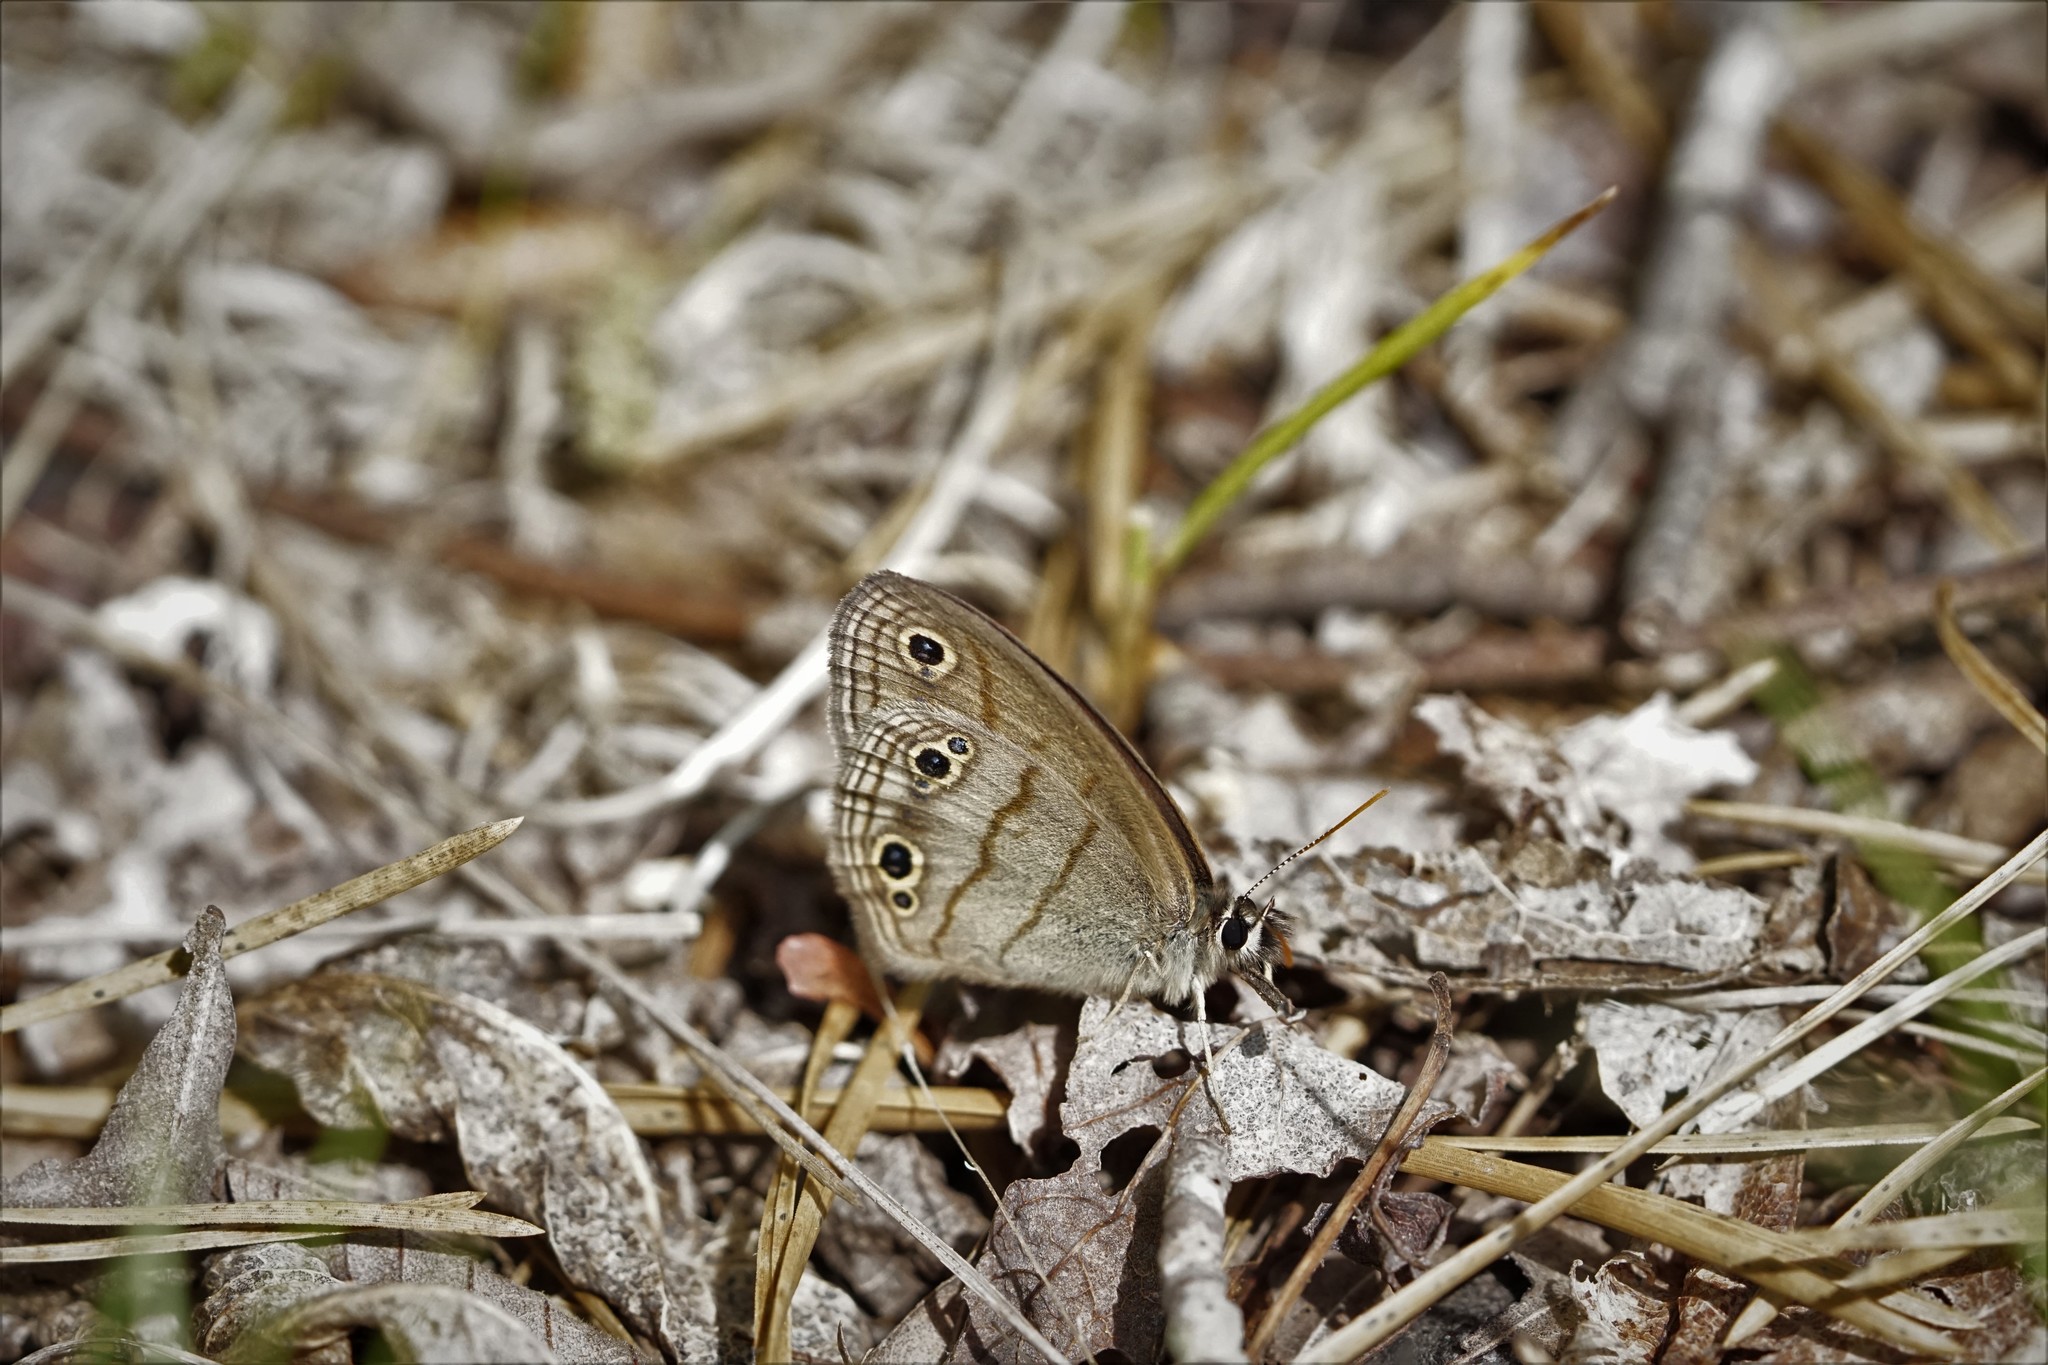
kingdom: Animalia
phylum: Arthropoda
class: Insecta
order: Lepidoptera
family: Nymphalidae
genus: Euptychia
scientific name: Euptychia cymela
